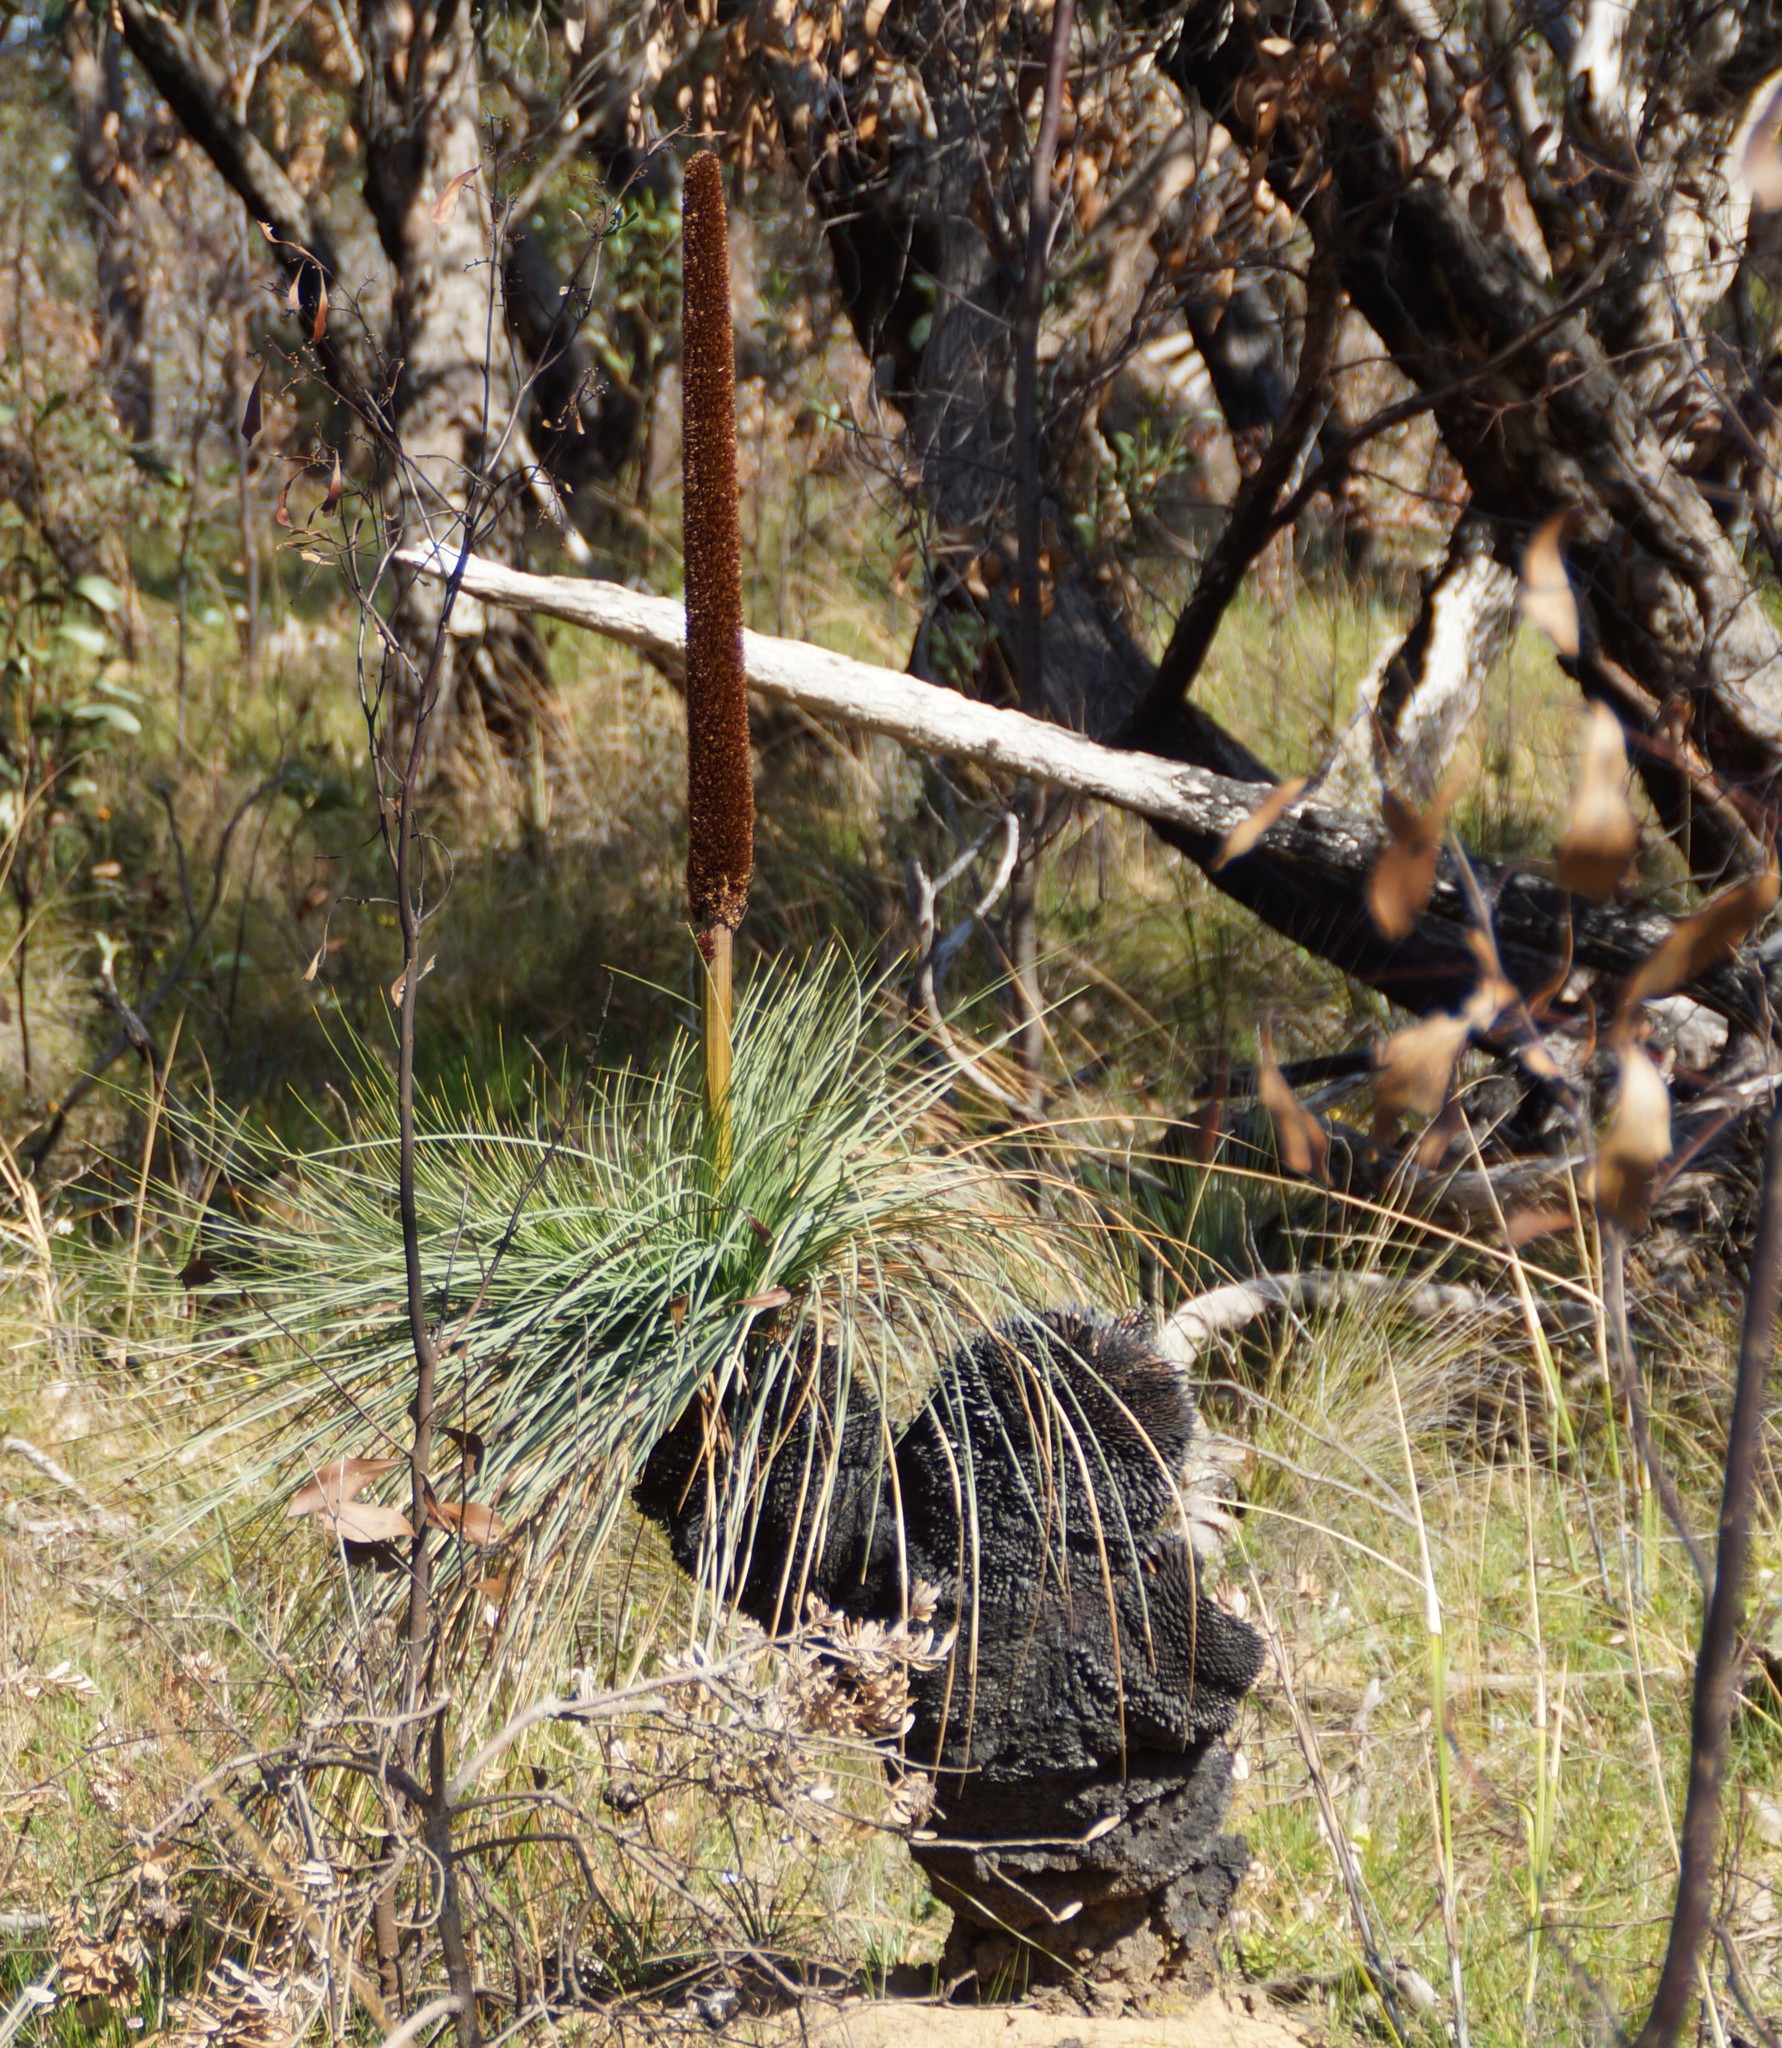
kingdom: Plantae
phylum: Tracheophyta
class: Liliopsida
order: Asparagales
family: Asphodelaceae
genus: Xanthorrhoea
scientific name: Xanthorrhoea australis
